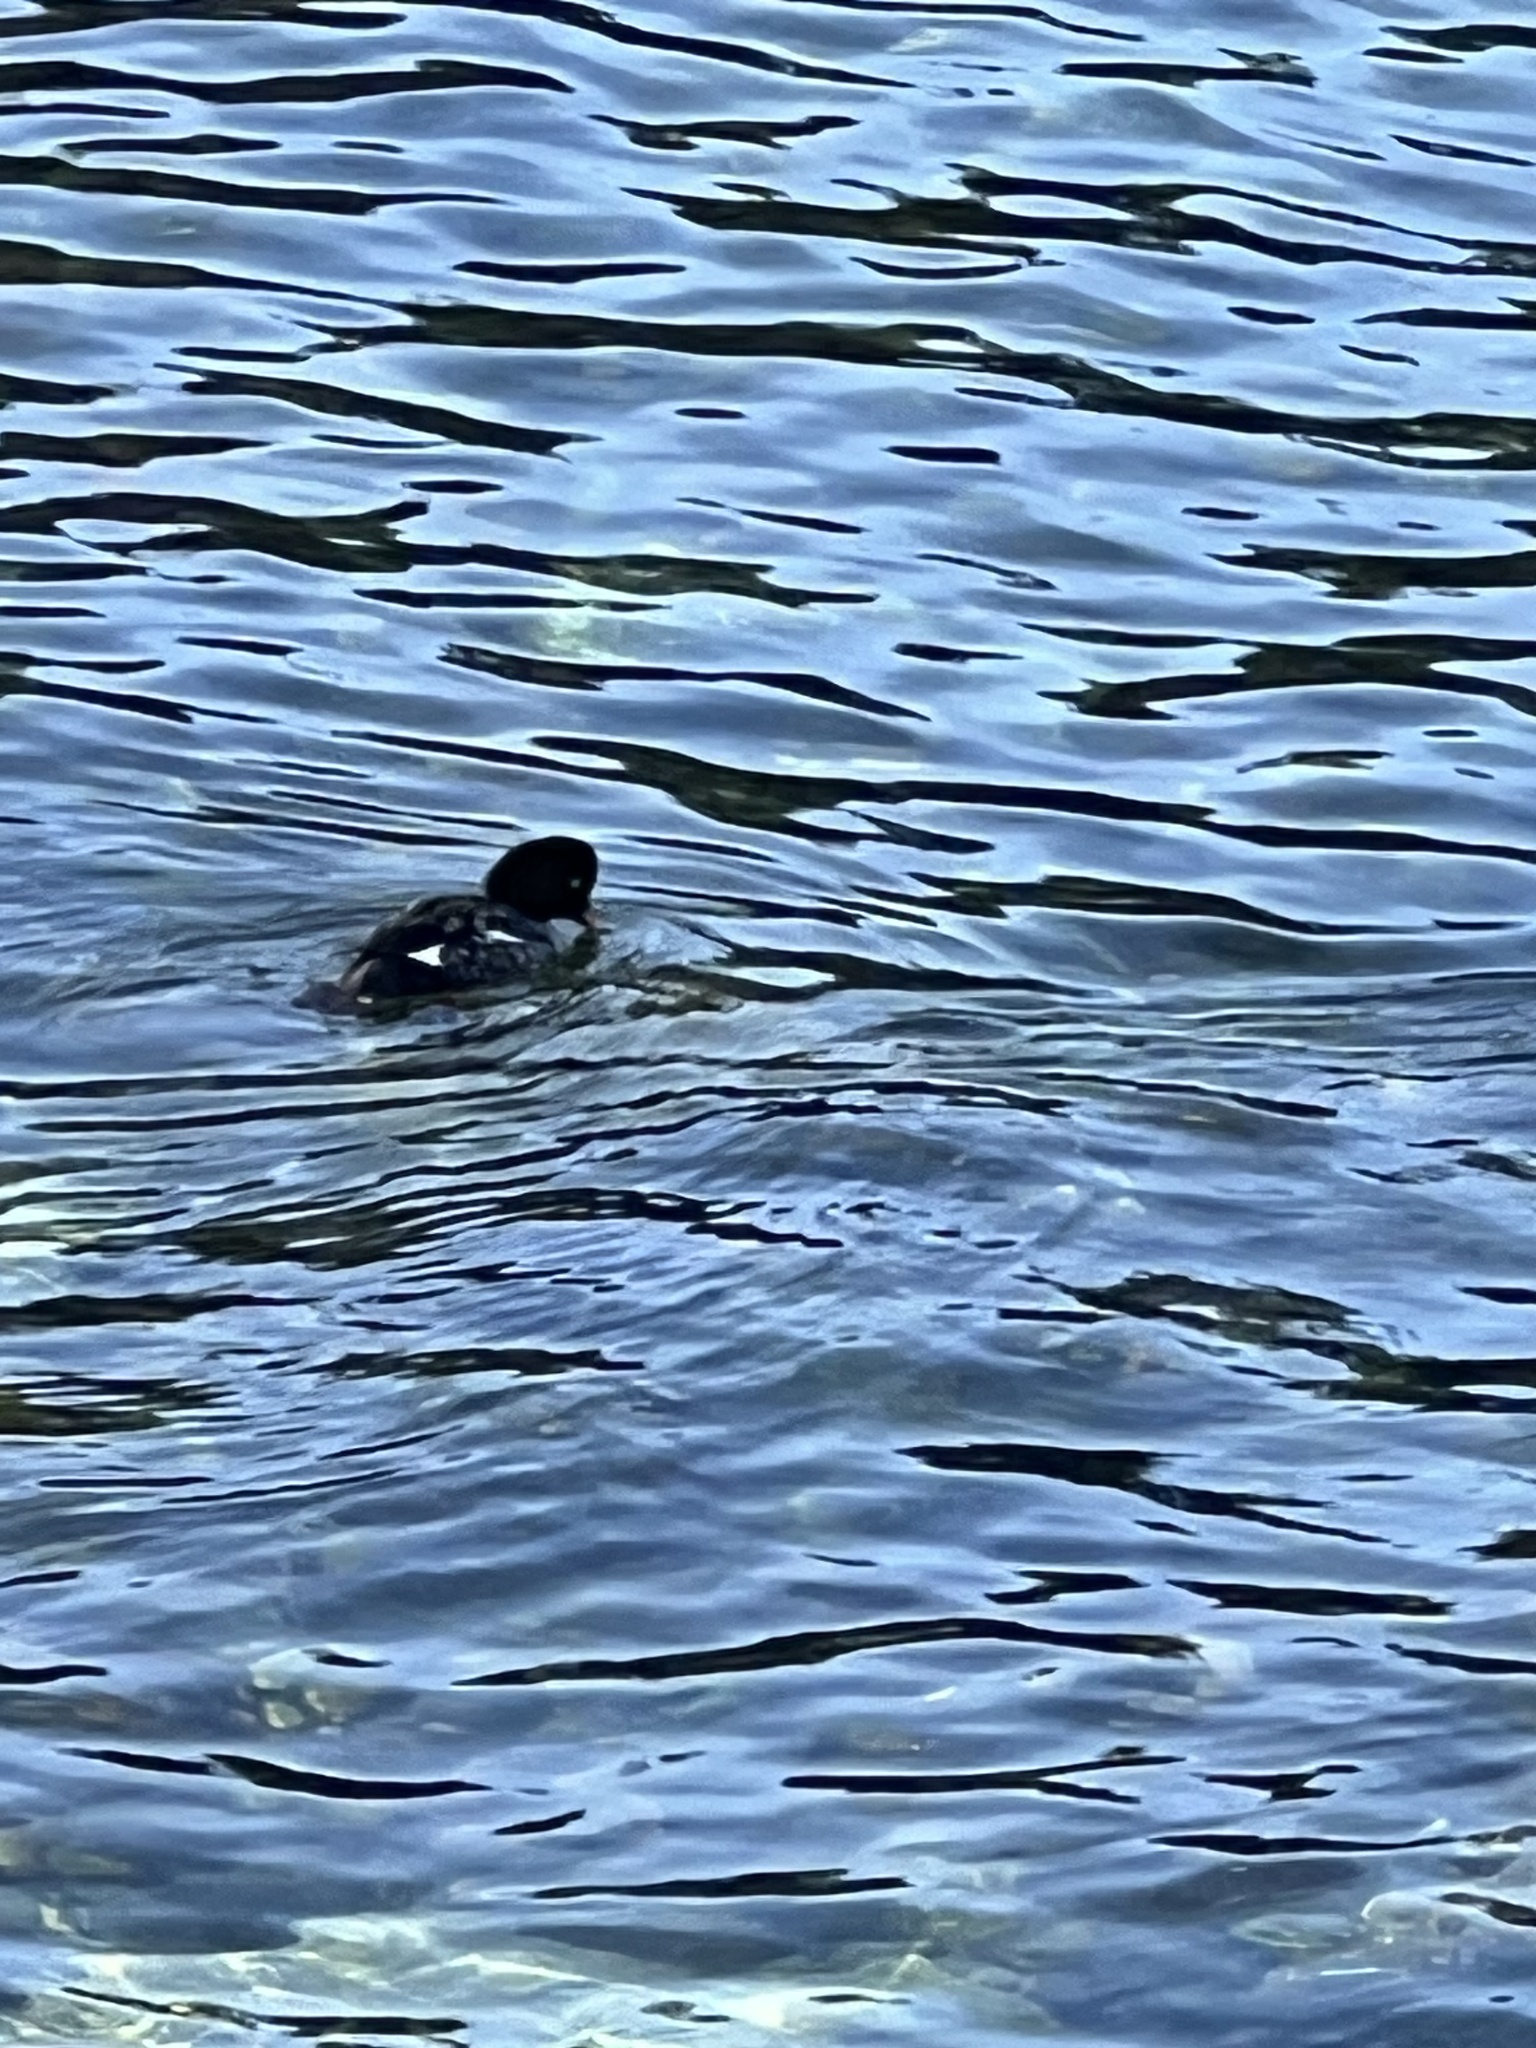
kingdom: Animalia
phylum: Chordata
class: Aves
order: Anseriformes
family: Anatidae
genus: Bucephala
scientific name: Bucephala islandica
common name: Barrow's goldeneye
